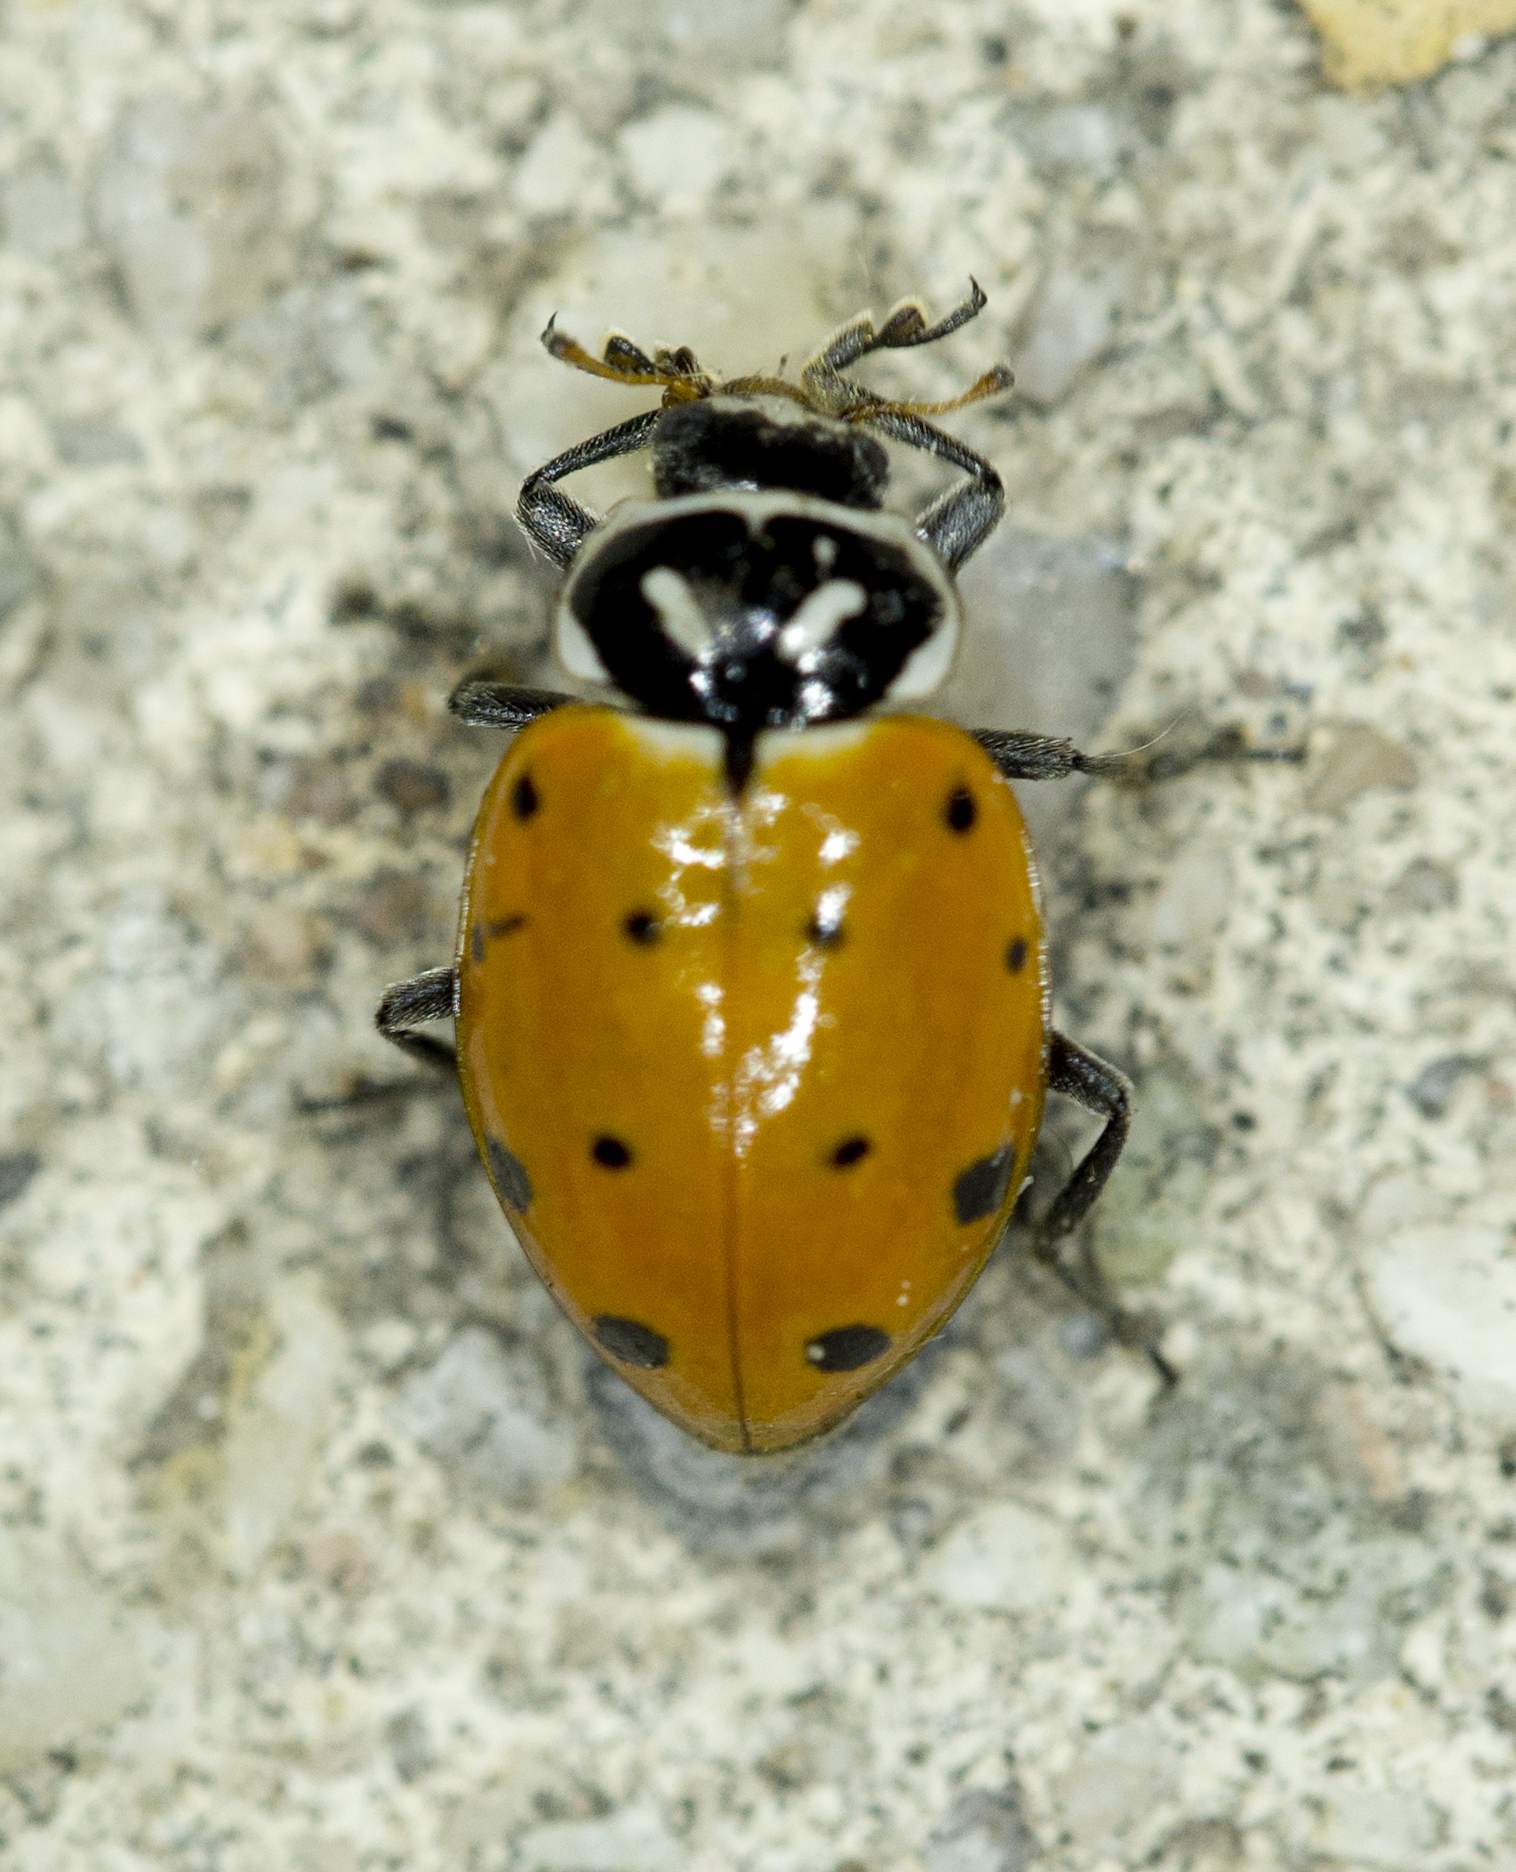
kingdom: Animalia
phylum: Arthropoda
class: Insecta
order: Coleoptera
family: Coccinellidae
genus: Hippodamia
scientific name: Hippodamia convergens
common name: Convergent lady beetle
